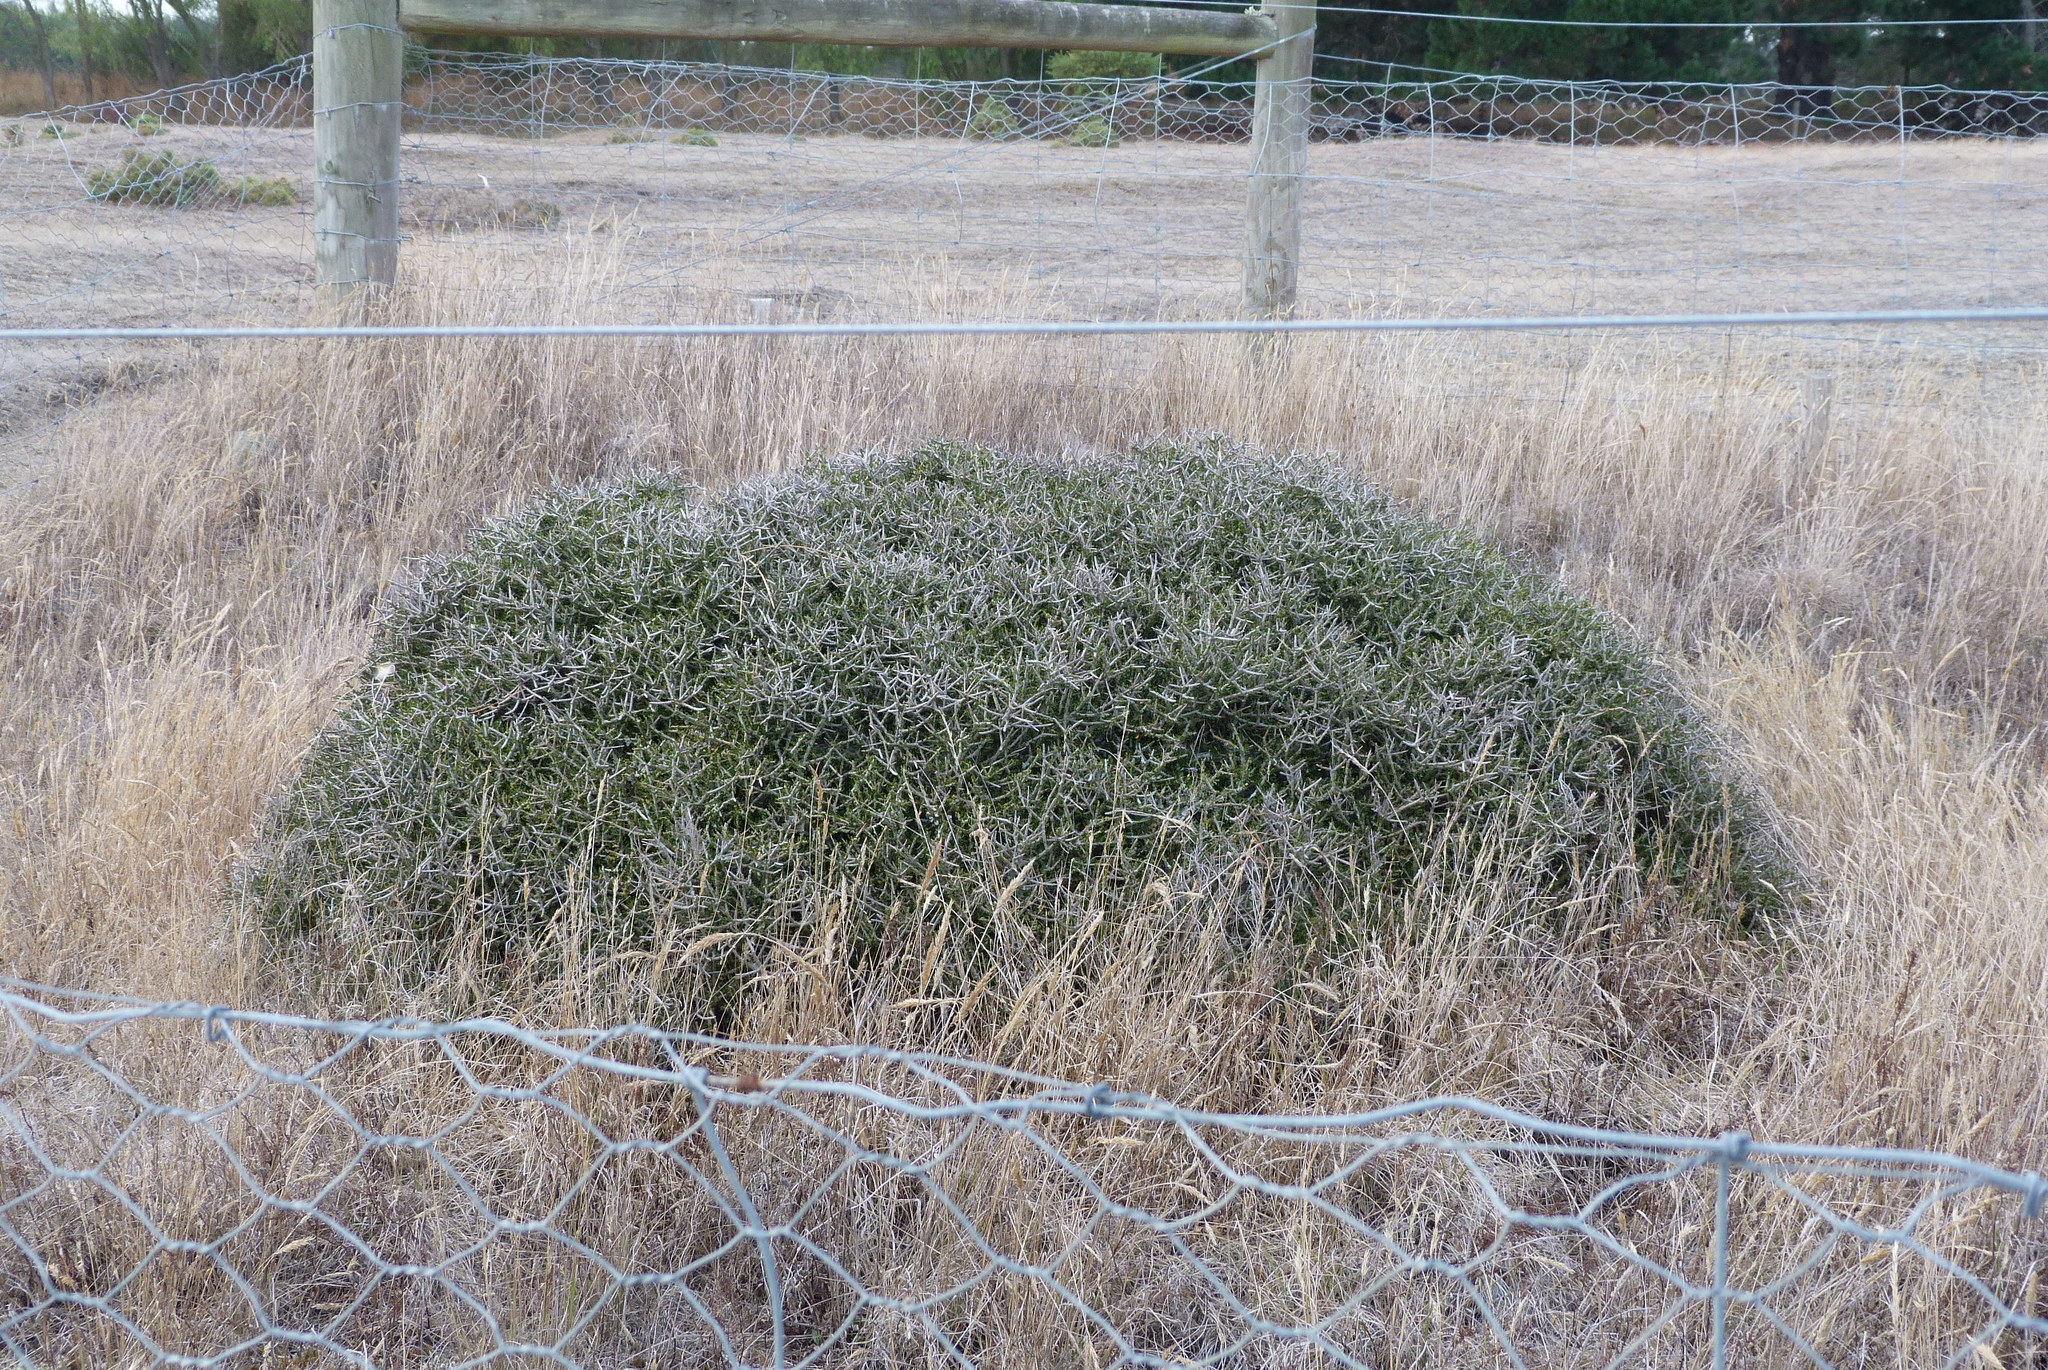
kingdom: Plantae
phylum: Tracheophyta
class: Magnoliopsida
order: Malpighiales
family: Violaceae
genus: Melicytus
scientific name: Melicytus alpinus
